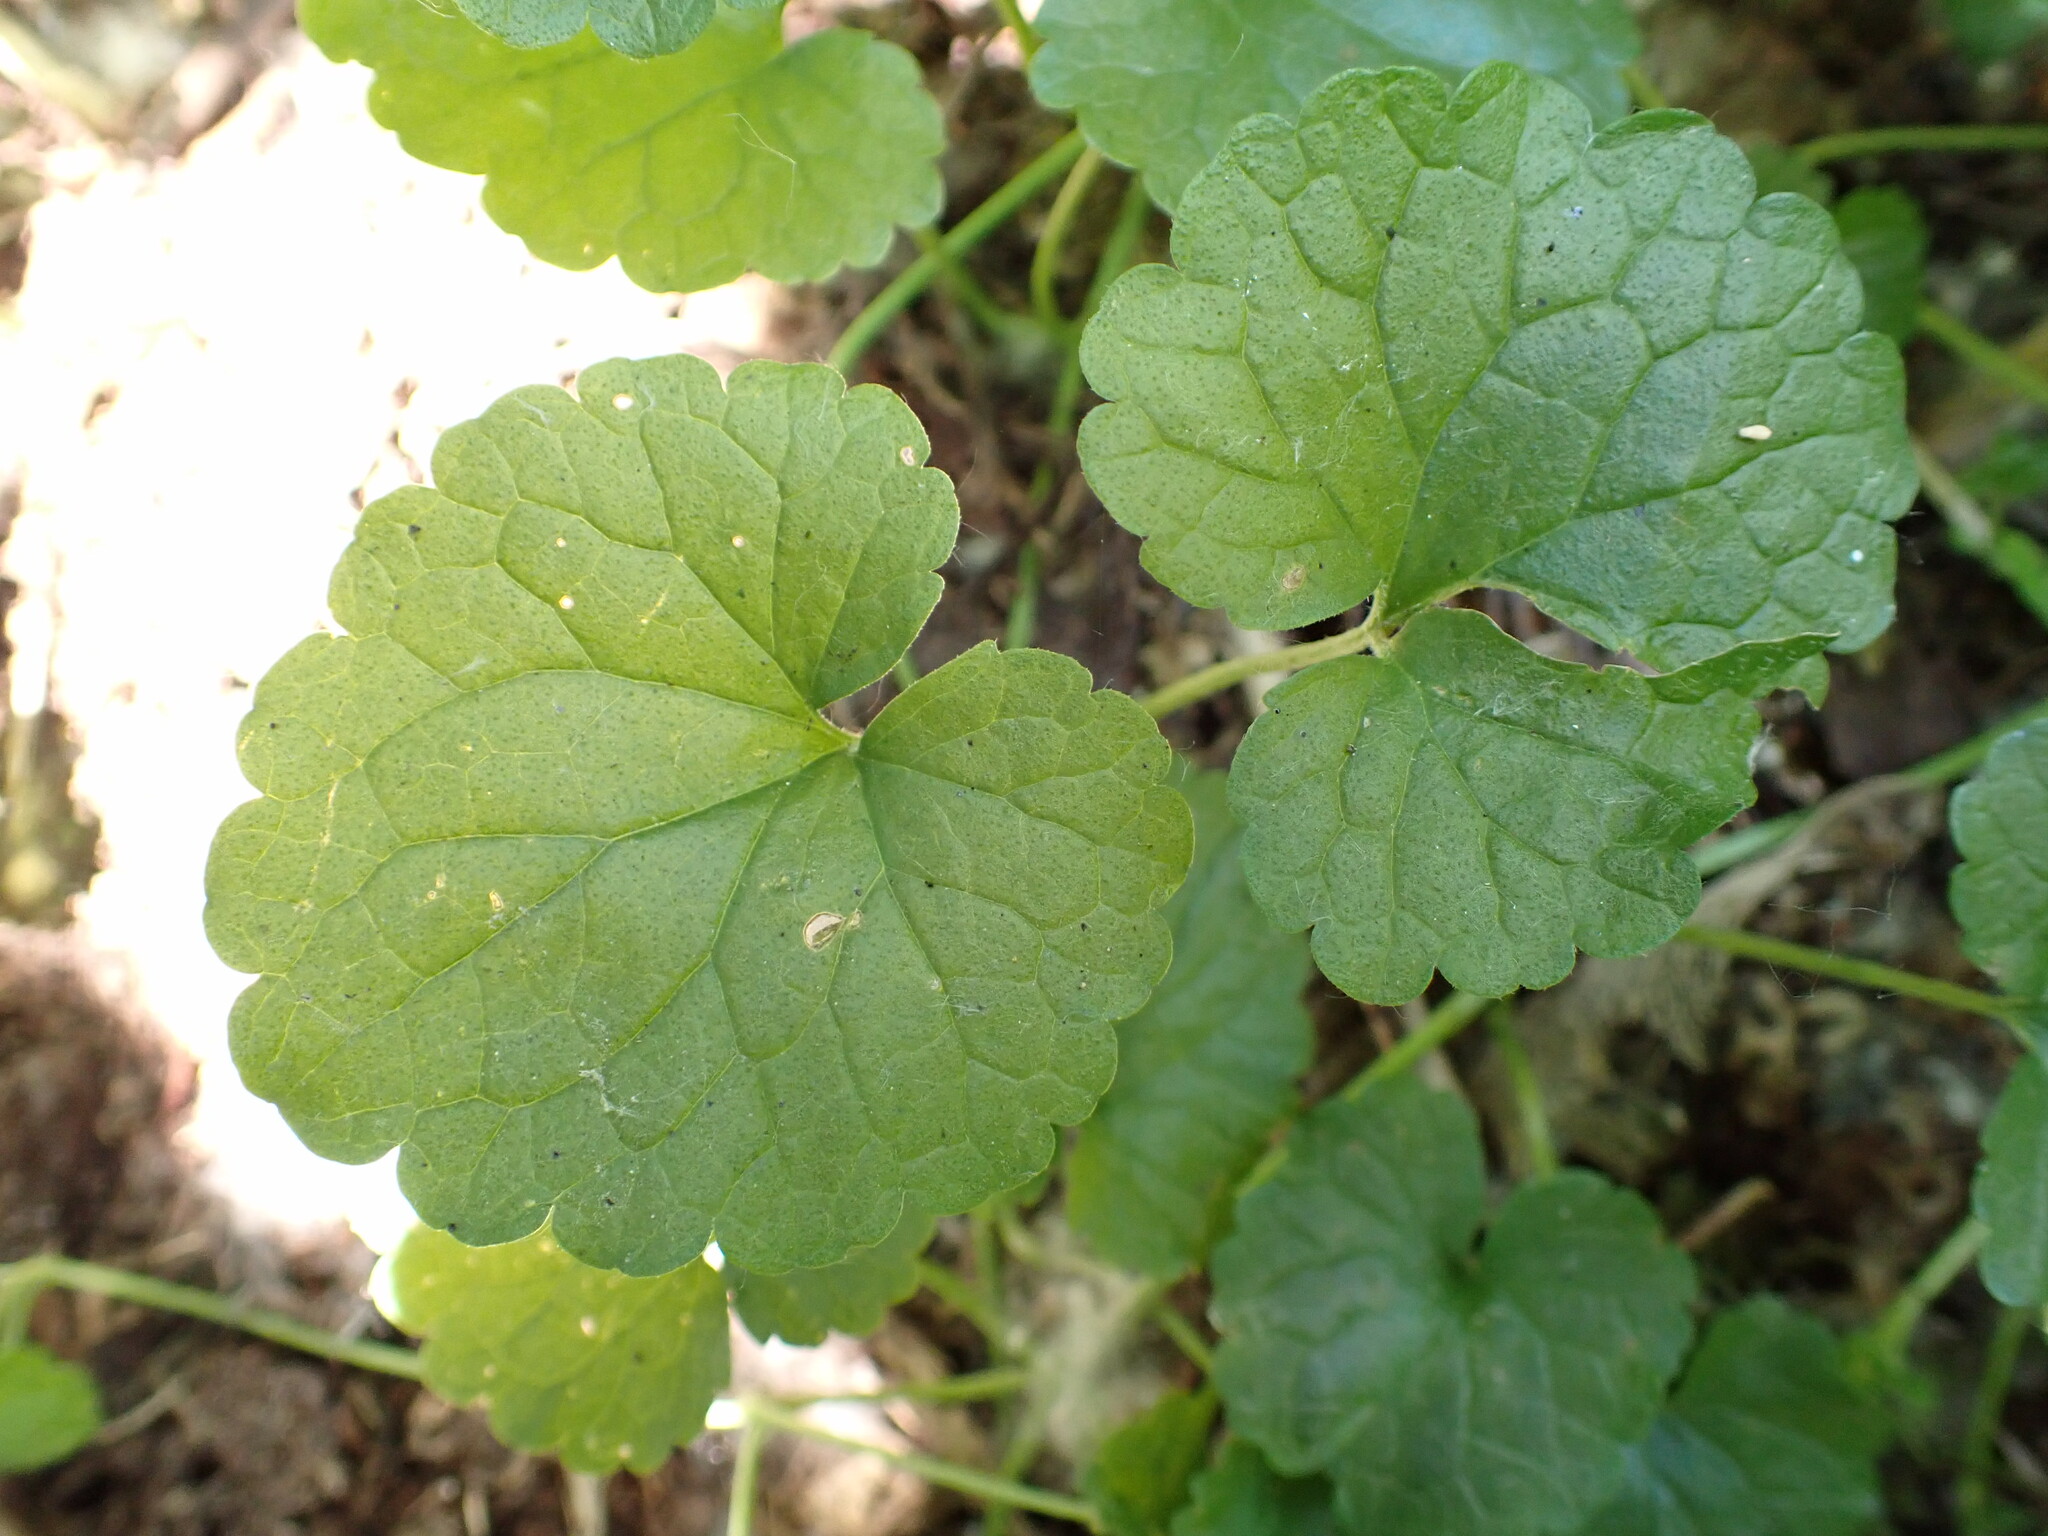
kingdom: Plantae
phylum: Tracheophyta
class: Magnoliopsida
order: Lamiales
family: Lamiaceae
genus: Glechoma
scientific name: Glechoma hederacea
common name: Ground ivy
